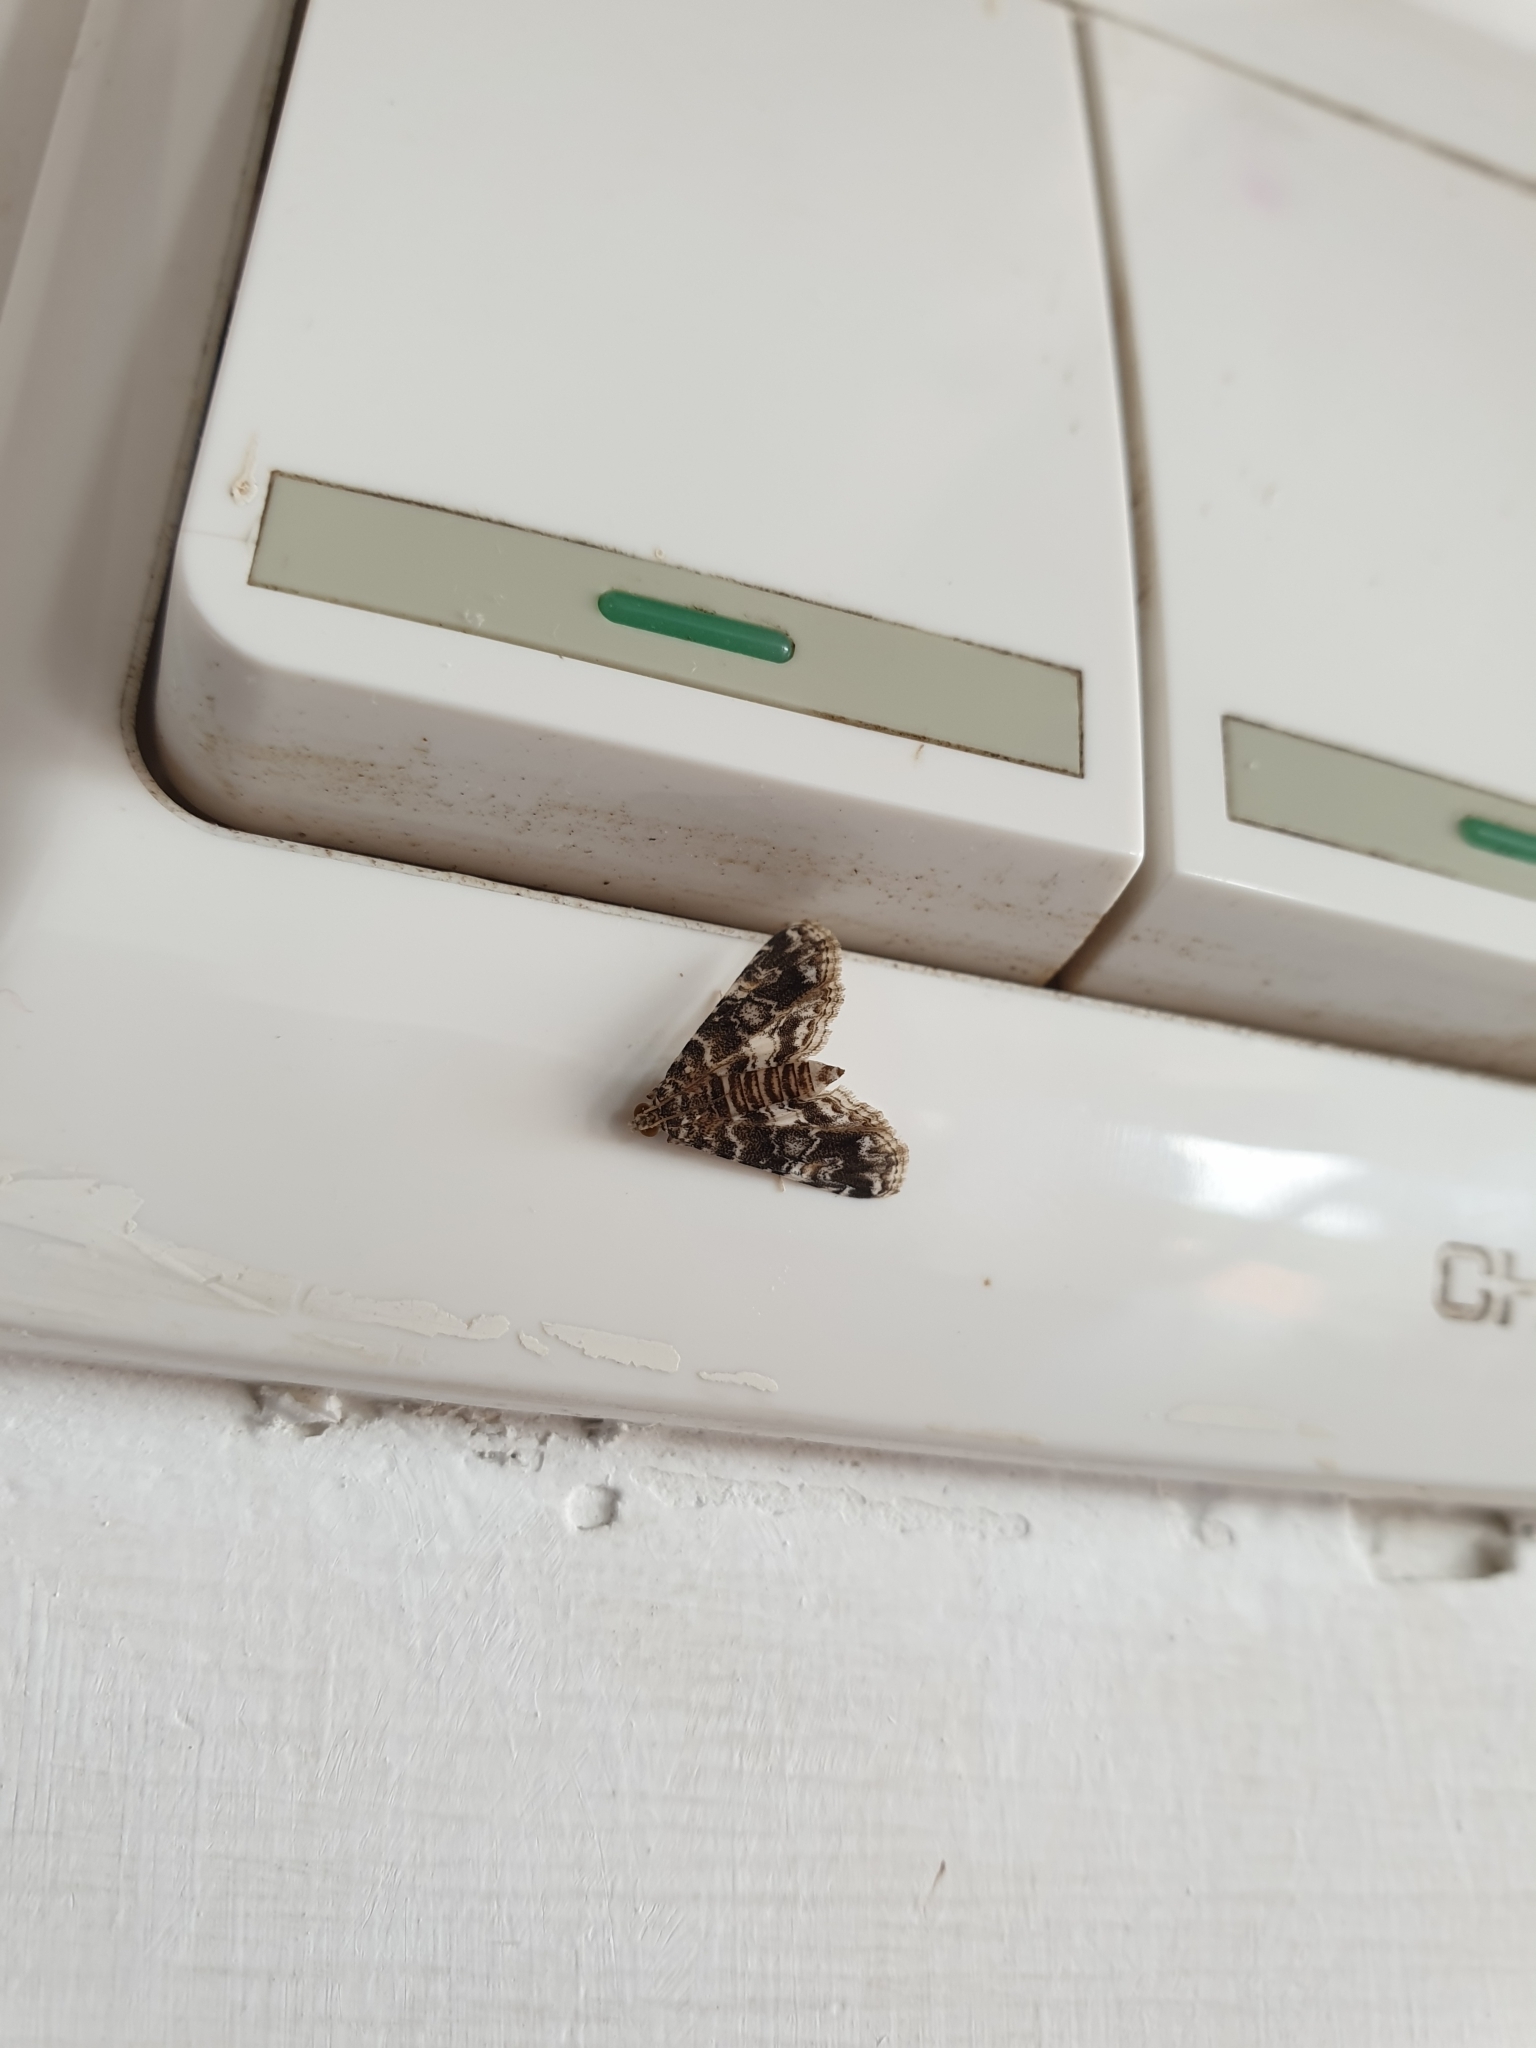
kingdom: Animalia
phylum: Arthropoda
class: Insecta
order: Lepidoptera
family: Crambidae
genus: Elophila
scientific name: Elophila difflualis
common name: Asian china-mark
